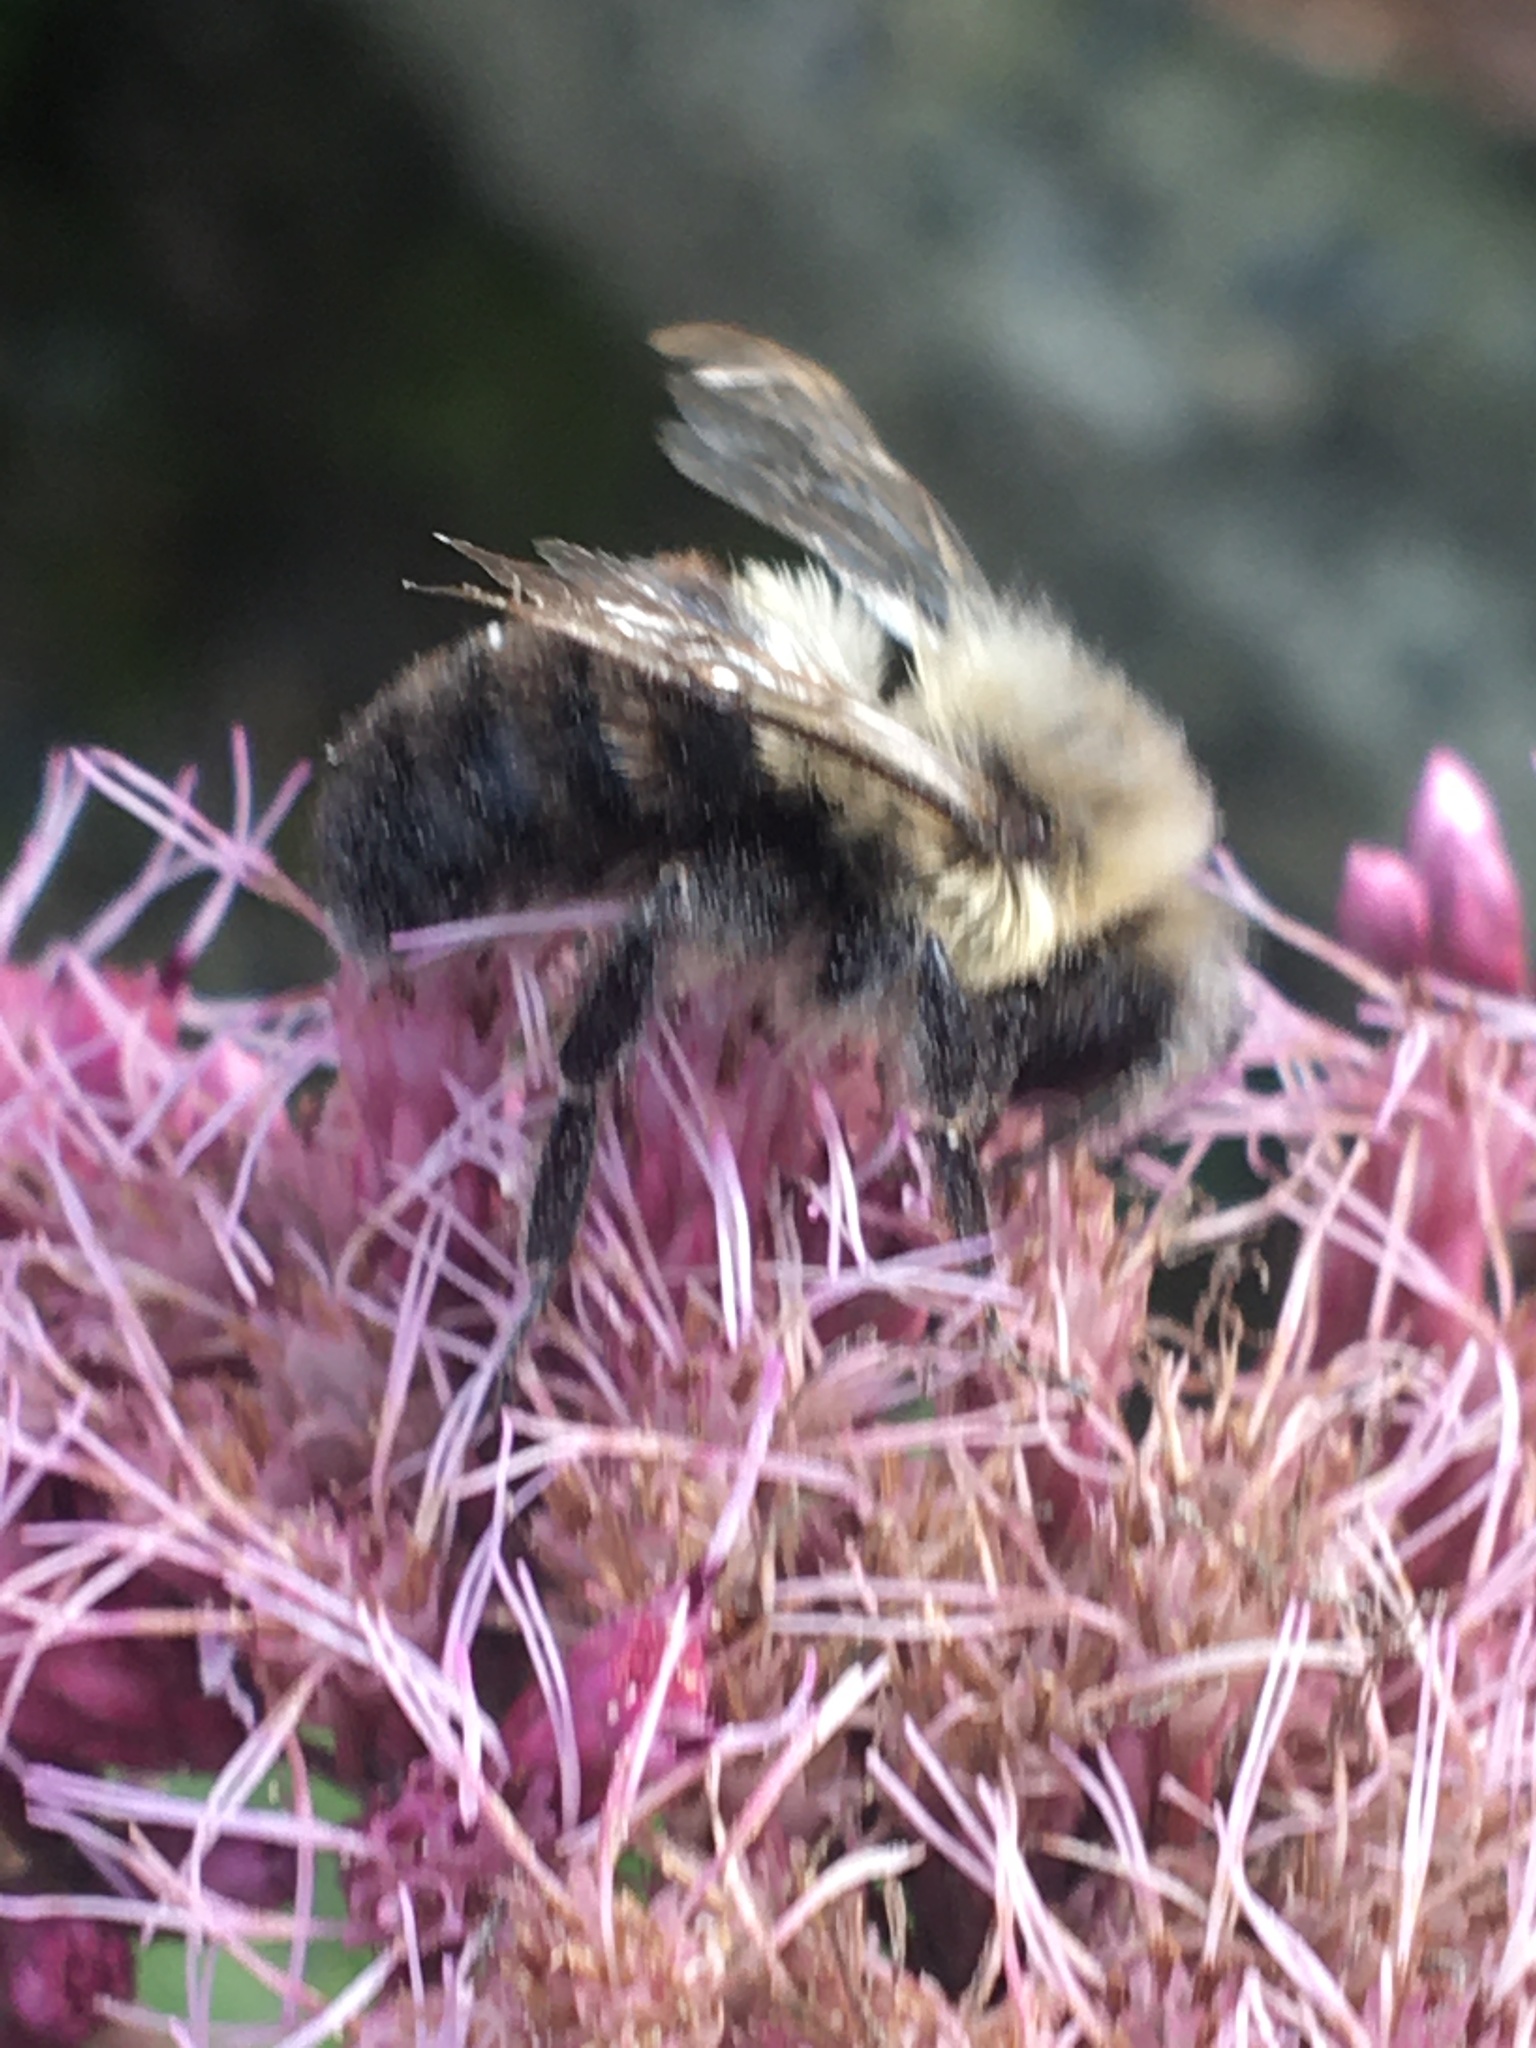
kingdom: Animalia
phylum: Arthropoda
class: Insecta
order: Hymenoptera
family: Apidae
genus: Bombus
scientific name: Bombus impatiens
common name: Common eastern bumble bee
